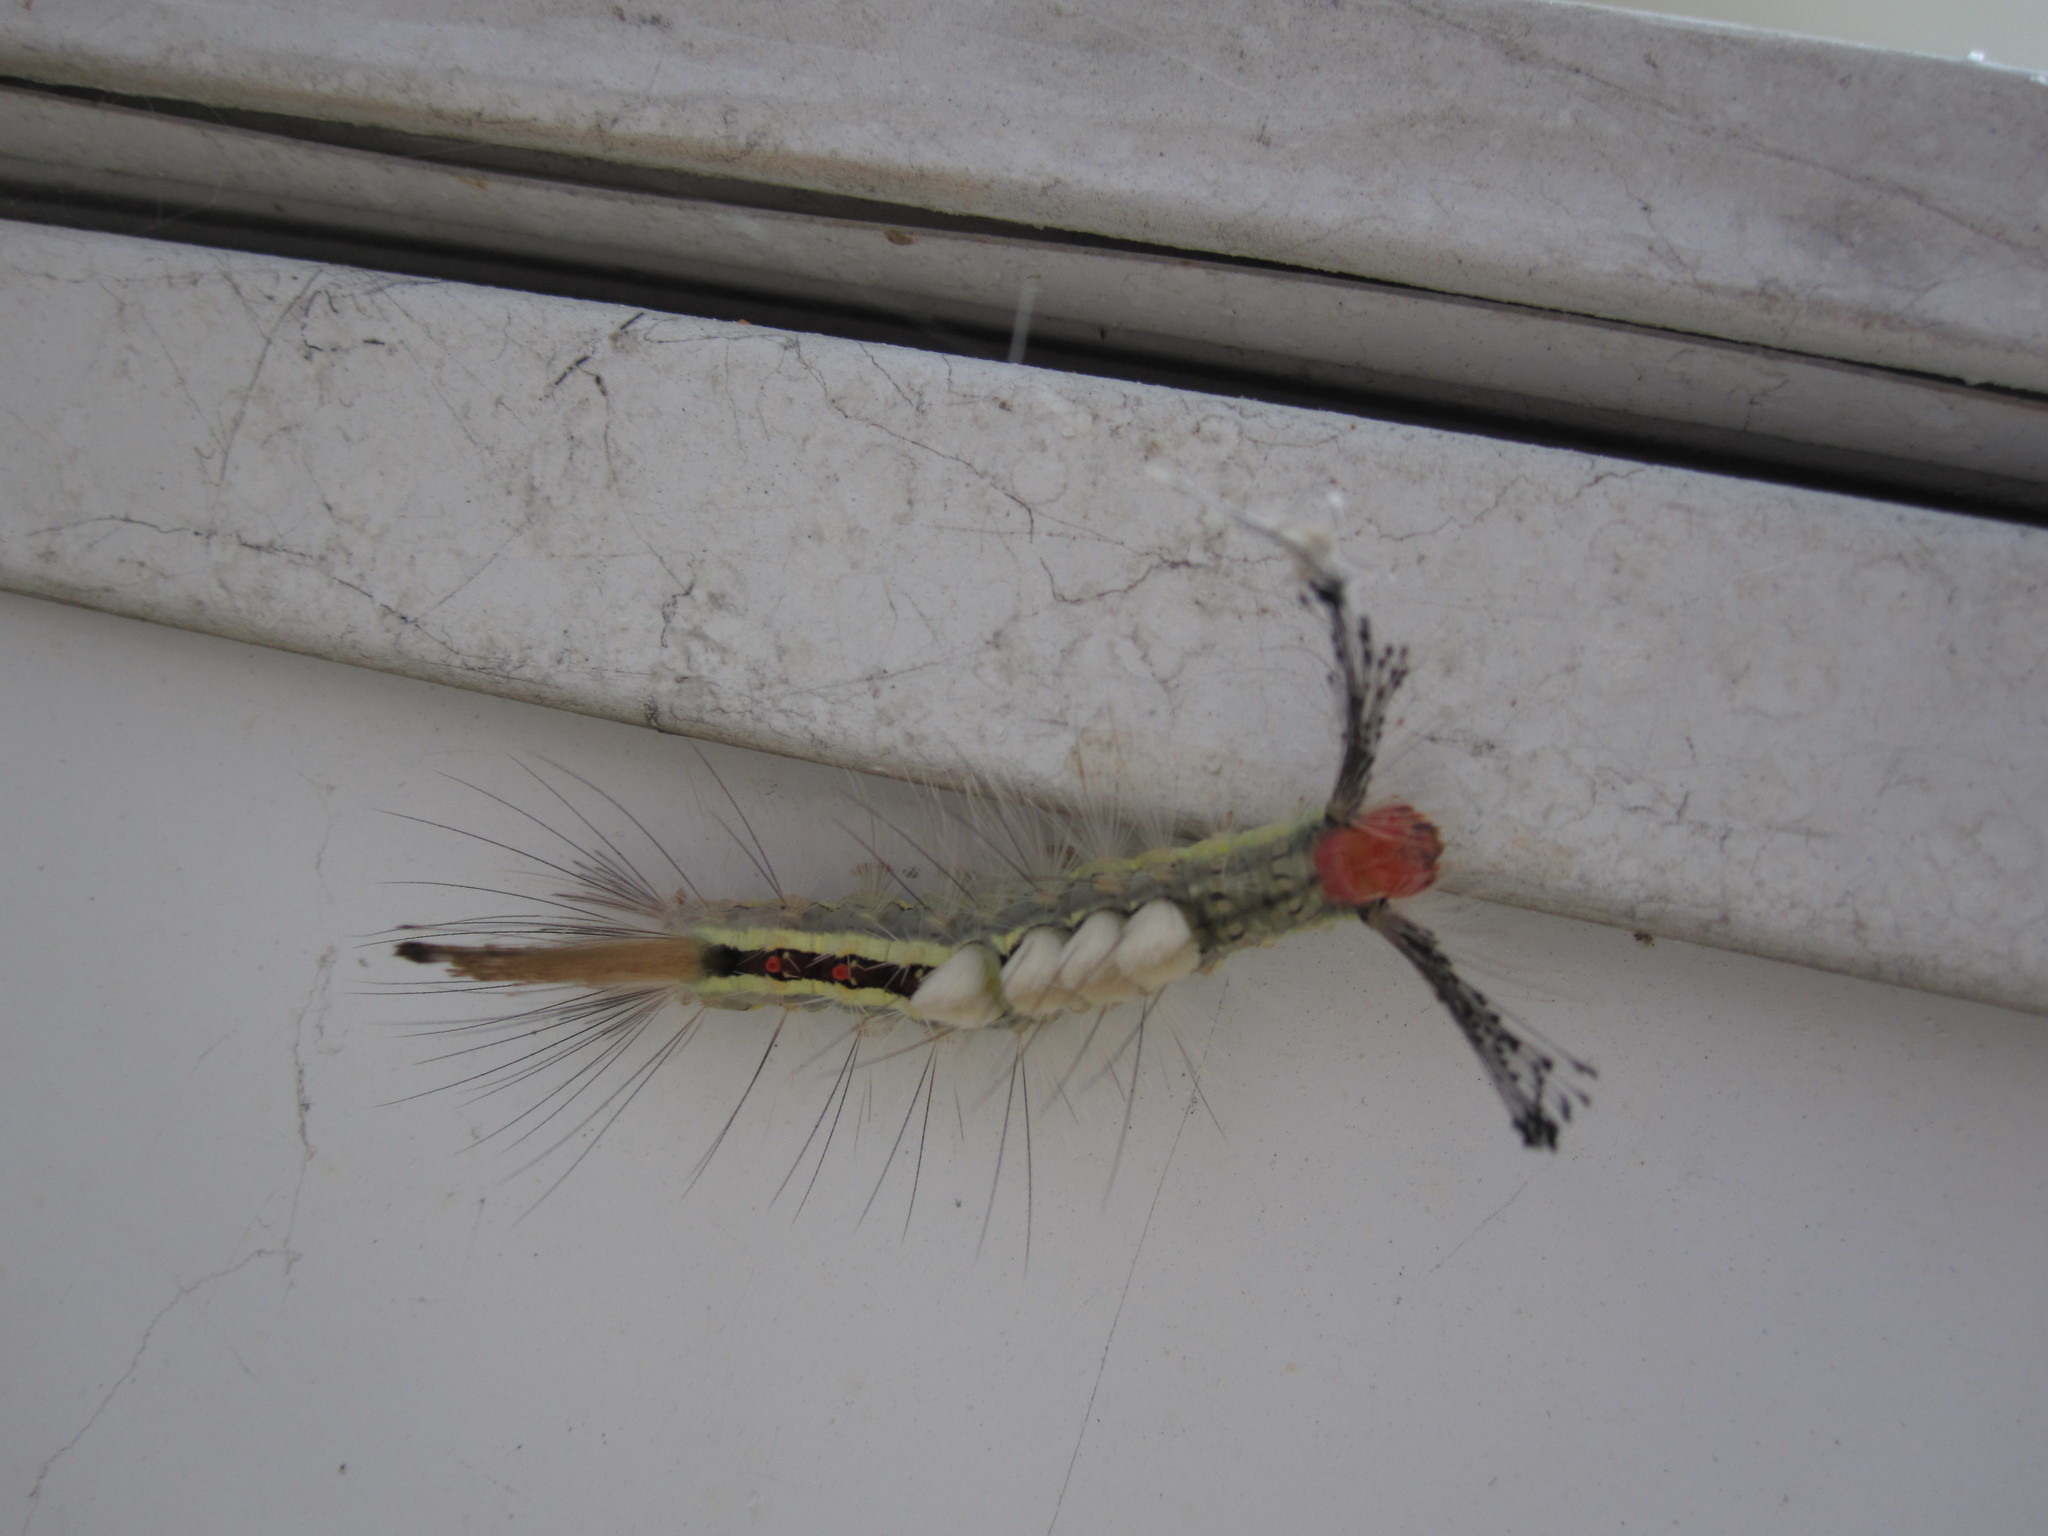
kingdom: Animalia
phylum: Arthropoda
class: Insecta
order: Lepidoptera
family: Erebidae
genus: Orgyia
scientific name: Orgyia leucostigma
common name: White-marked tussock moth
